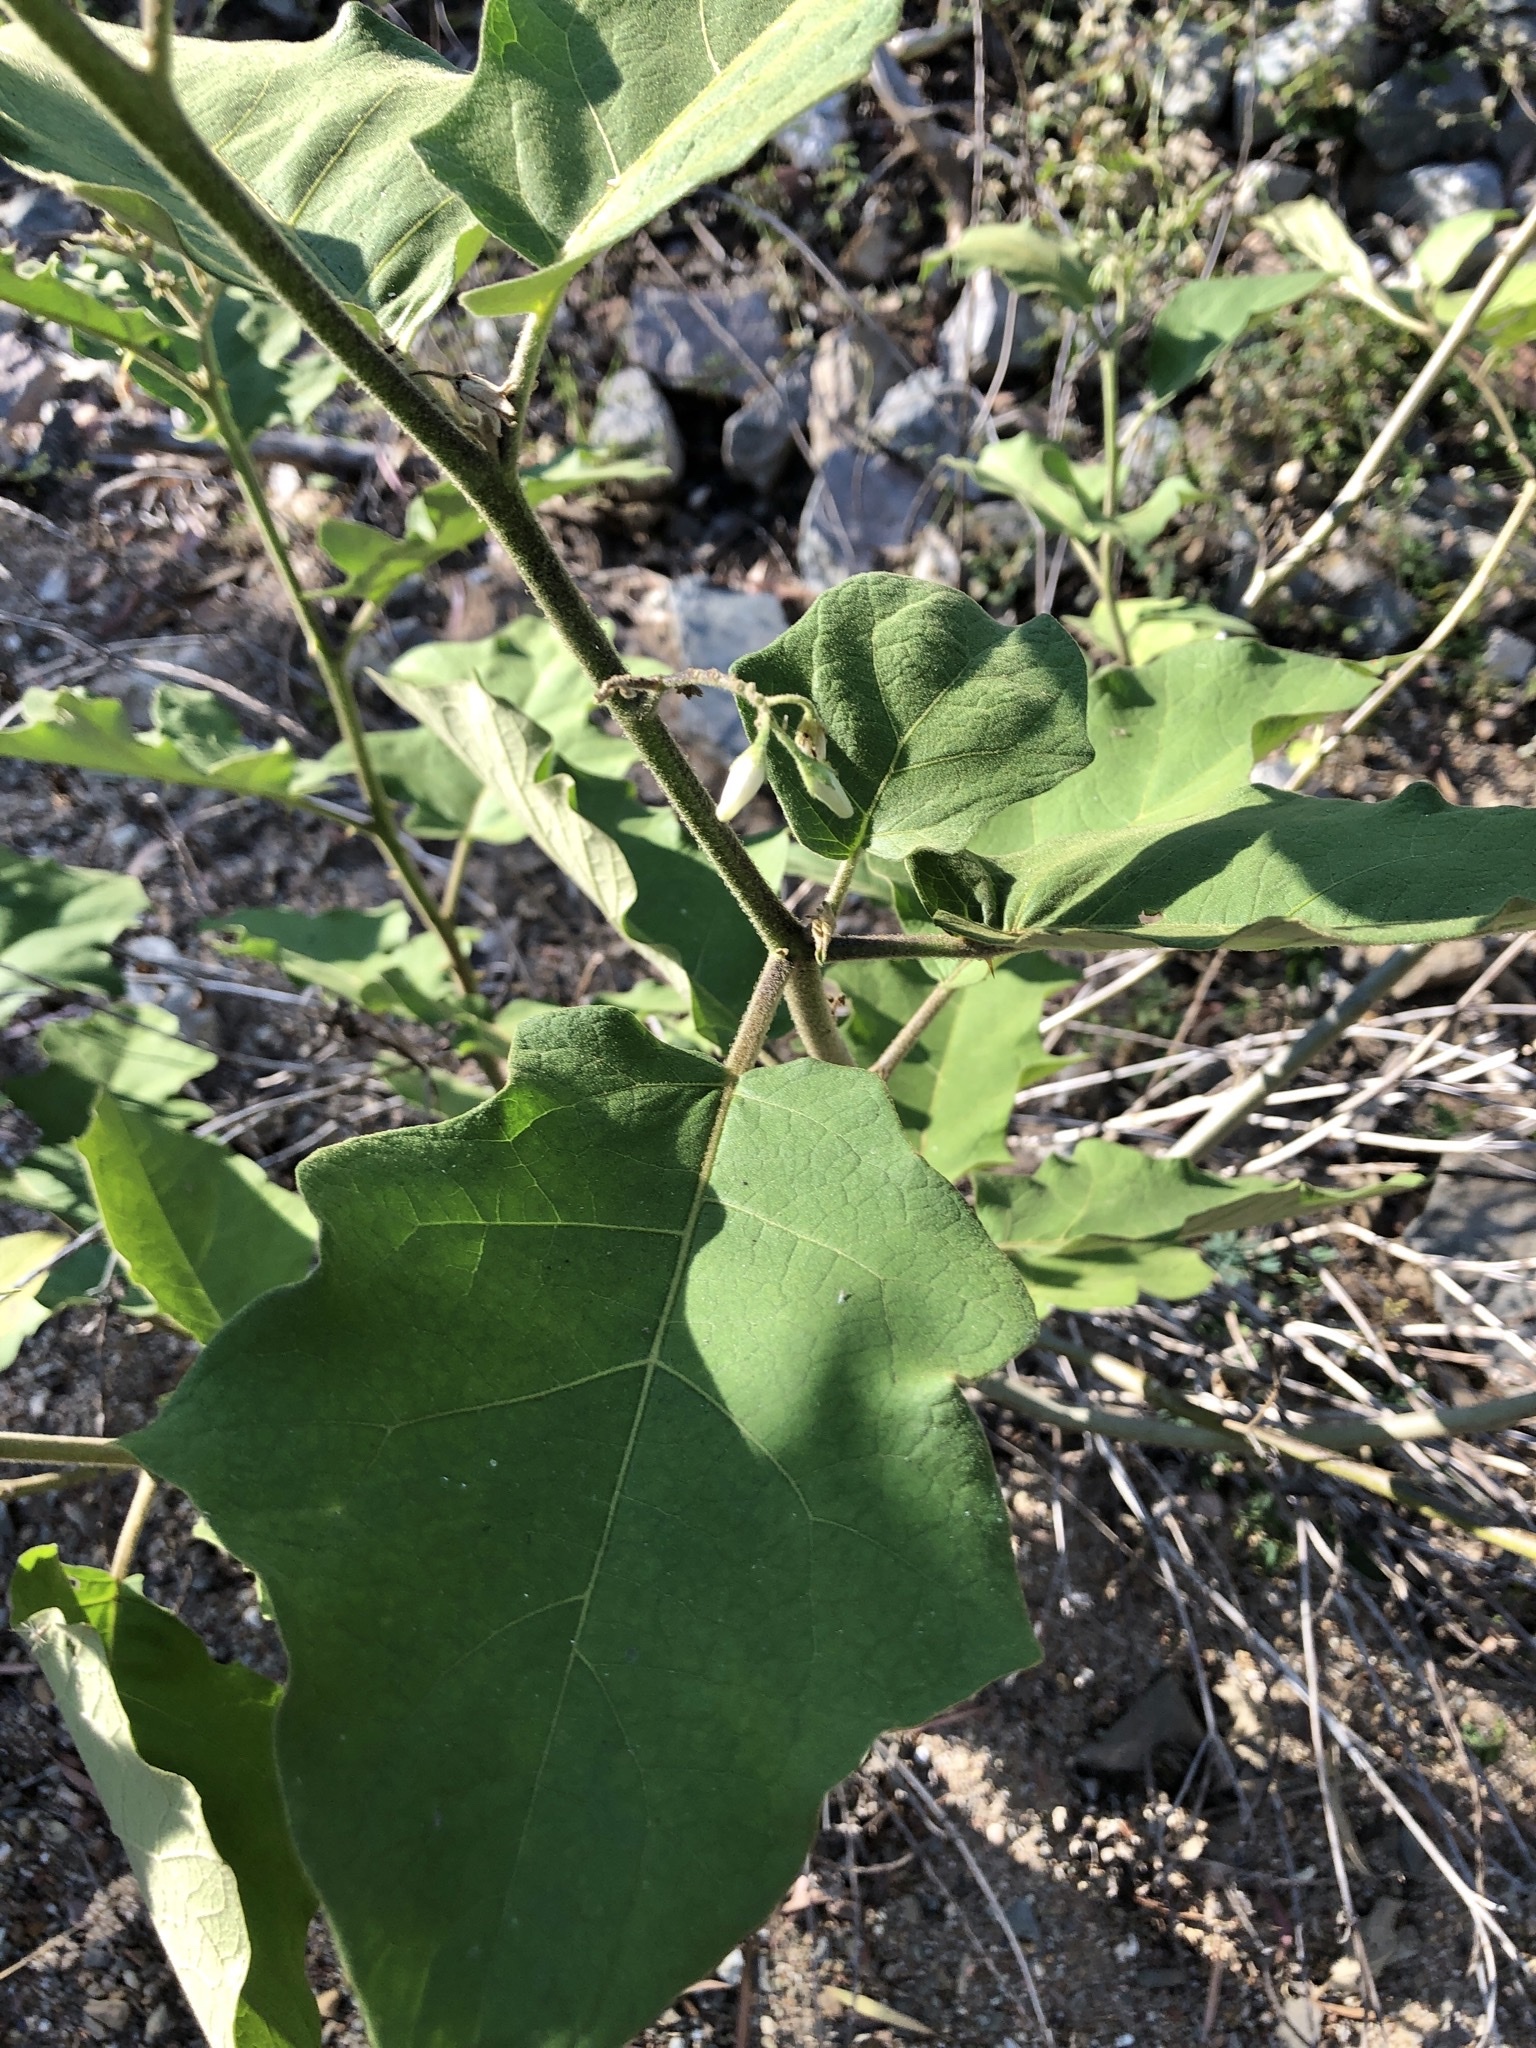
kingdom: Plantae
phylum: Tracheophyta
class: Magnoliopsida
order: Solanales
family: Solanaceae
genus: Solanum
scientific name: Solanum torvum
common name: Turkey berry
